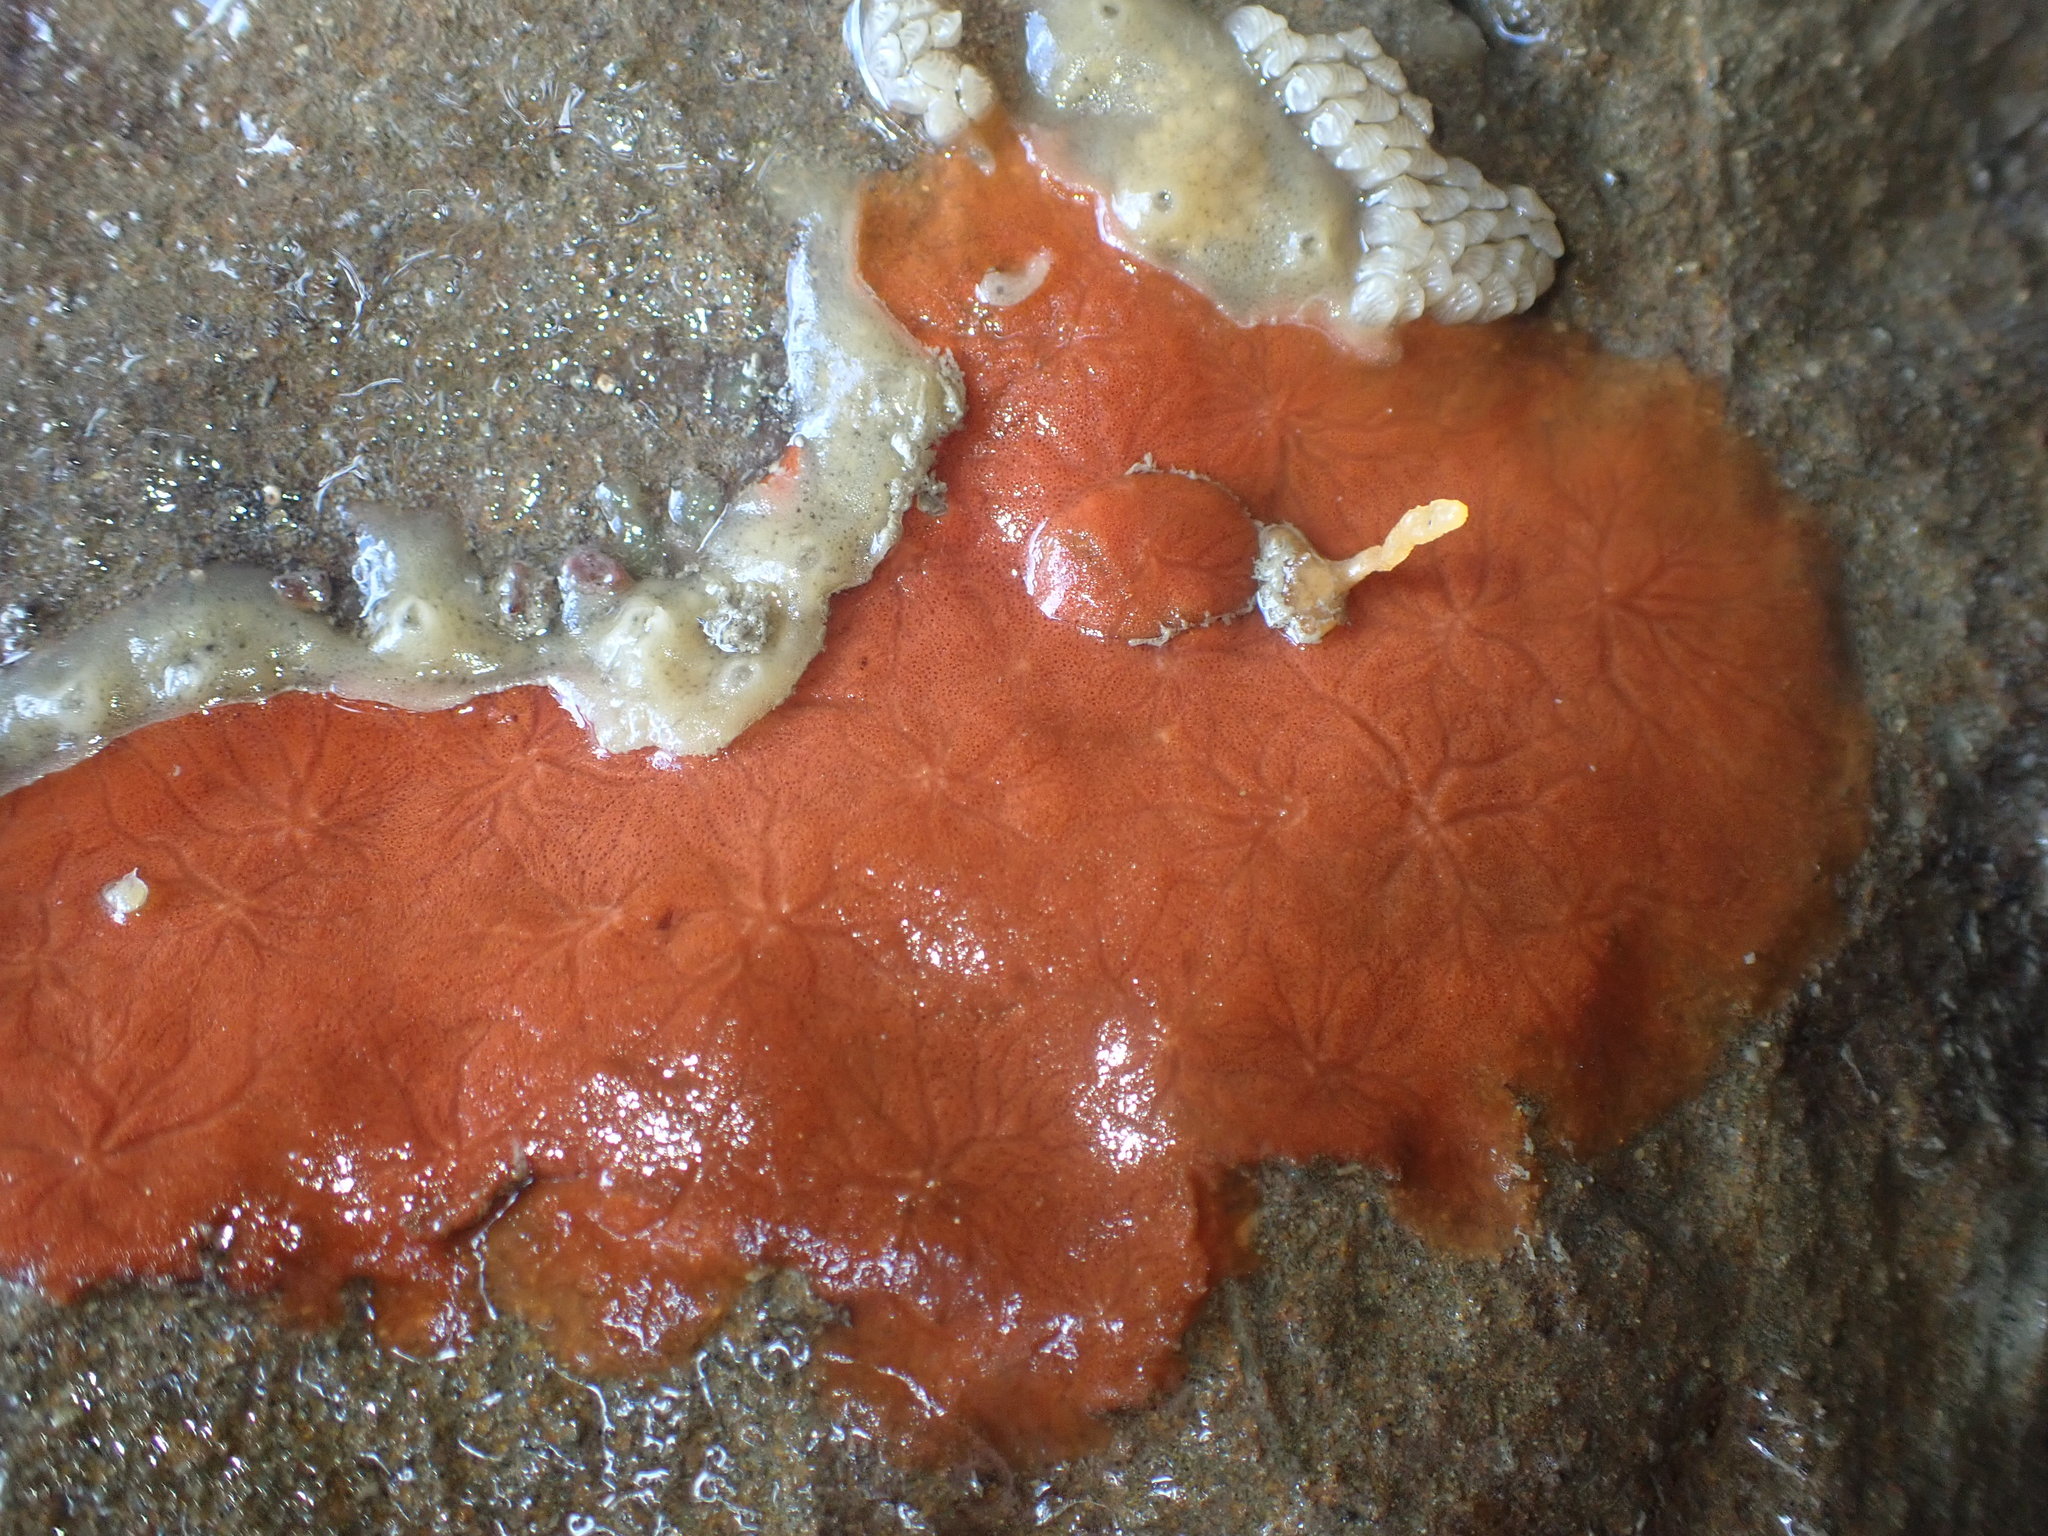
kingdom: Animalia
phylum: Porifera
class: Demospongiae
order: Tethyida
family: Timeidae
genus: Timea
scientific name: Timea aurantiaca
